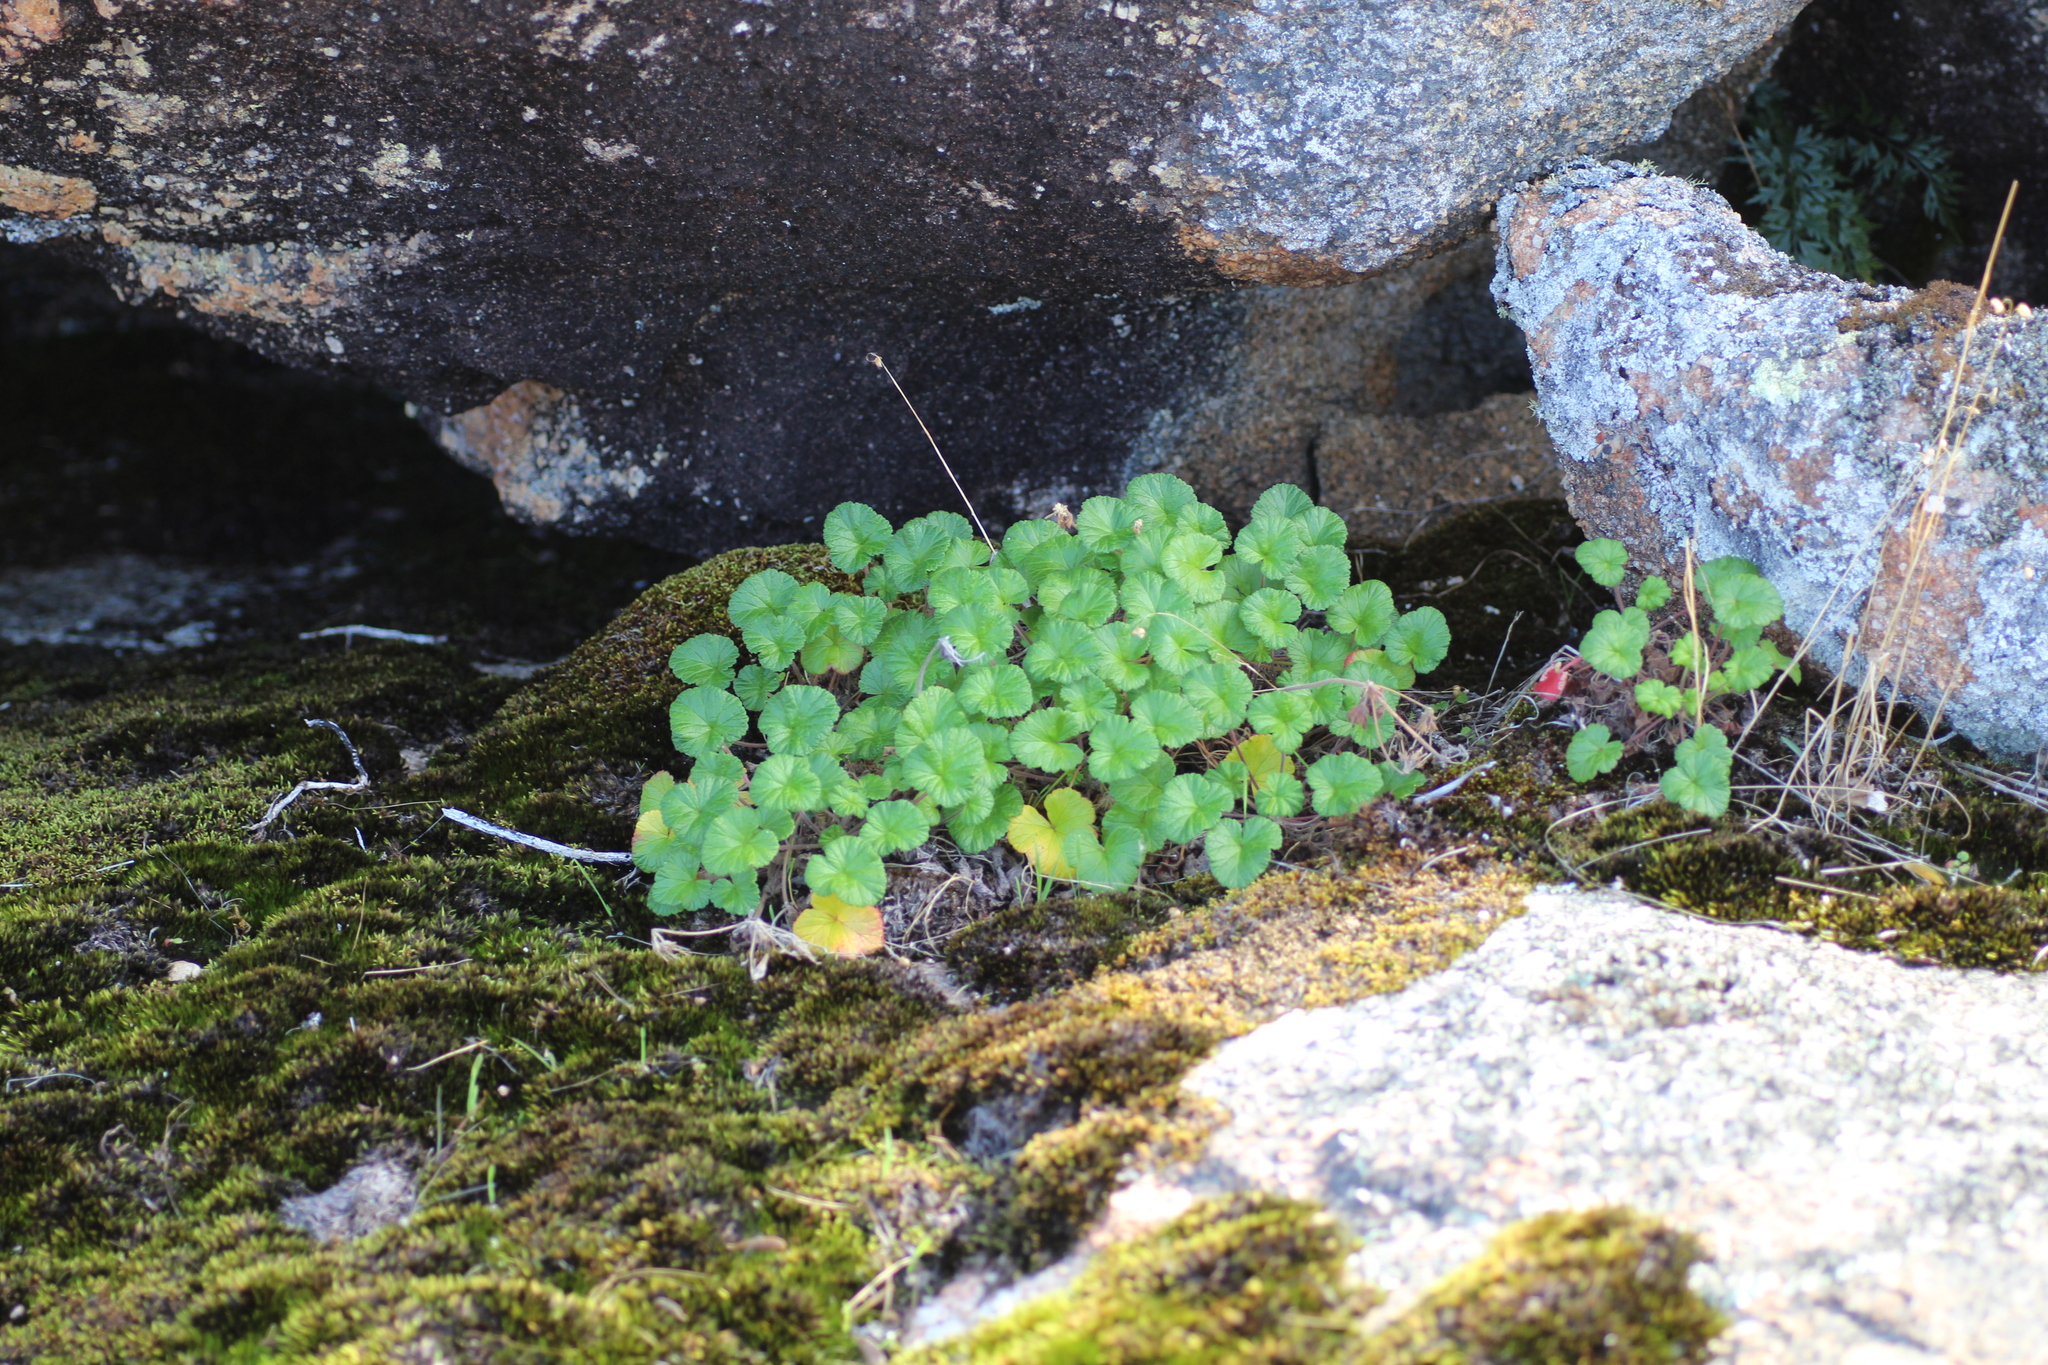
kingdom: Plantae
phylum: Tracheophyta
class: Magnoliopsida
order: Geraniales
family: Geraniaceae
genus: Pelargonium
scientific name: Pelargonium australe
